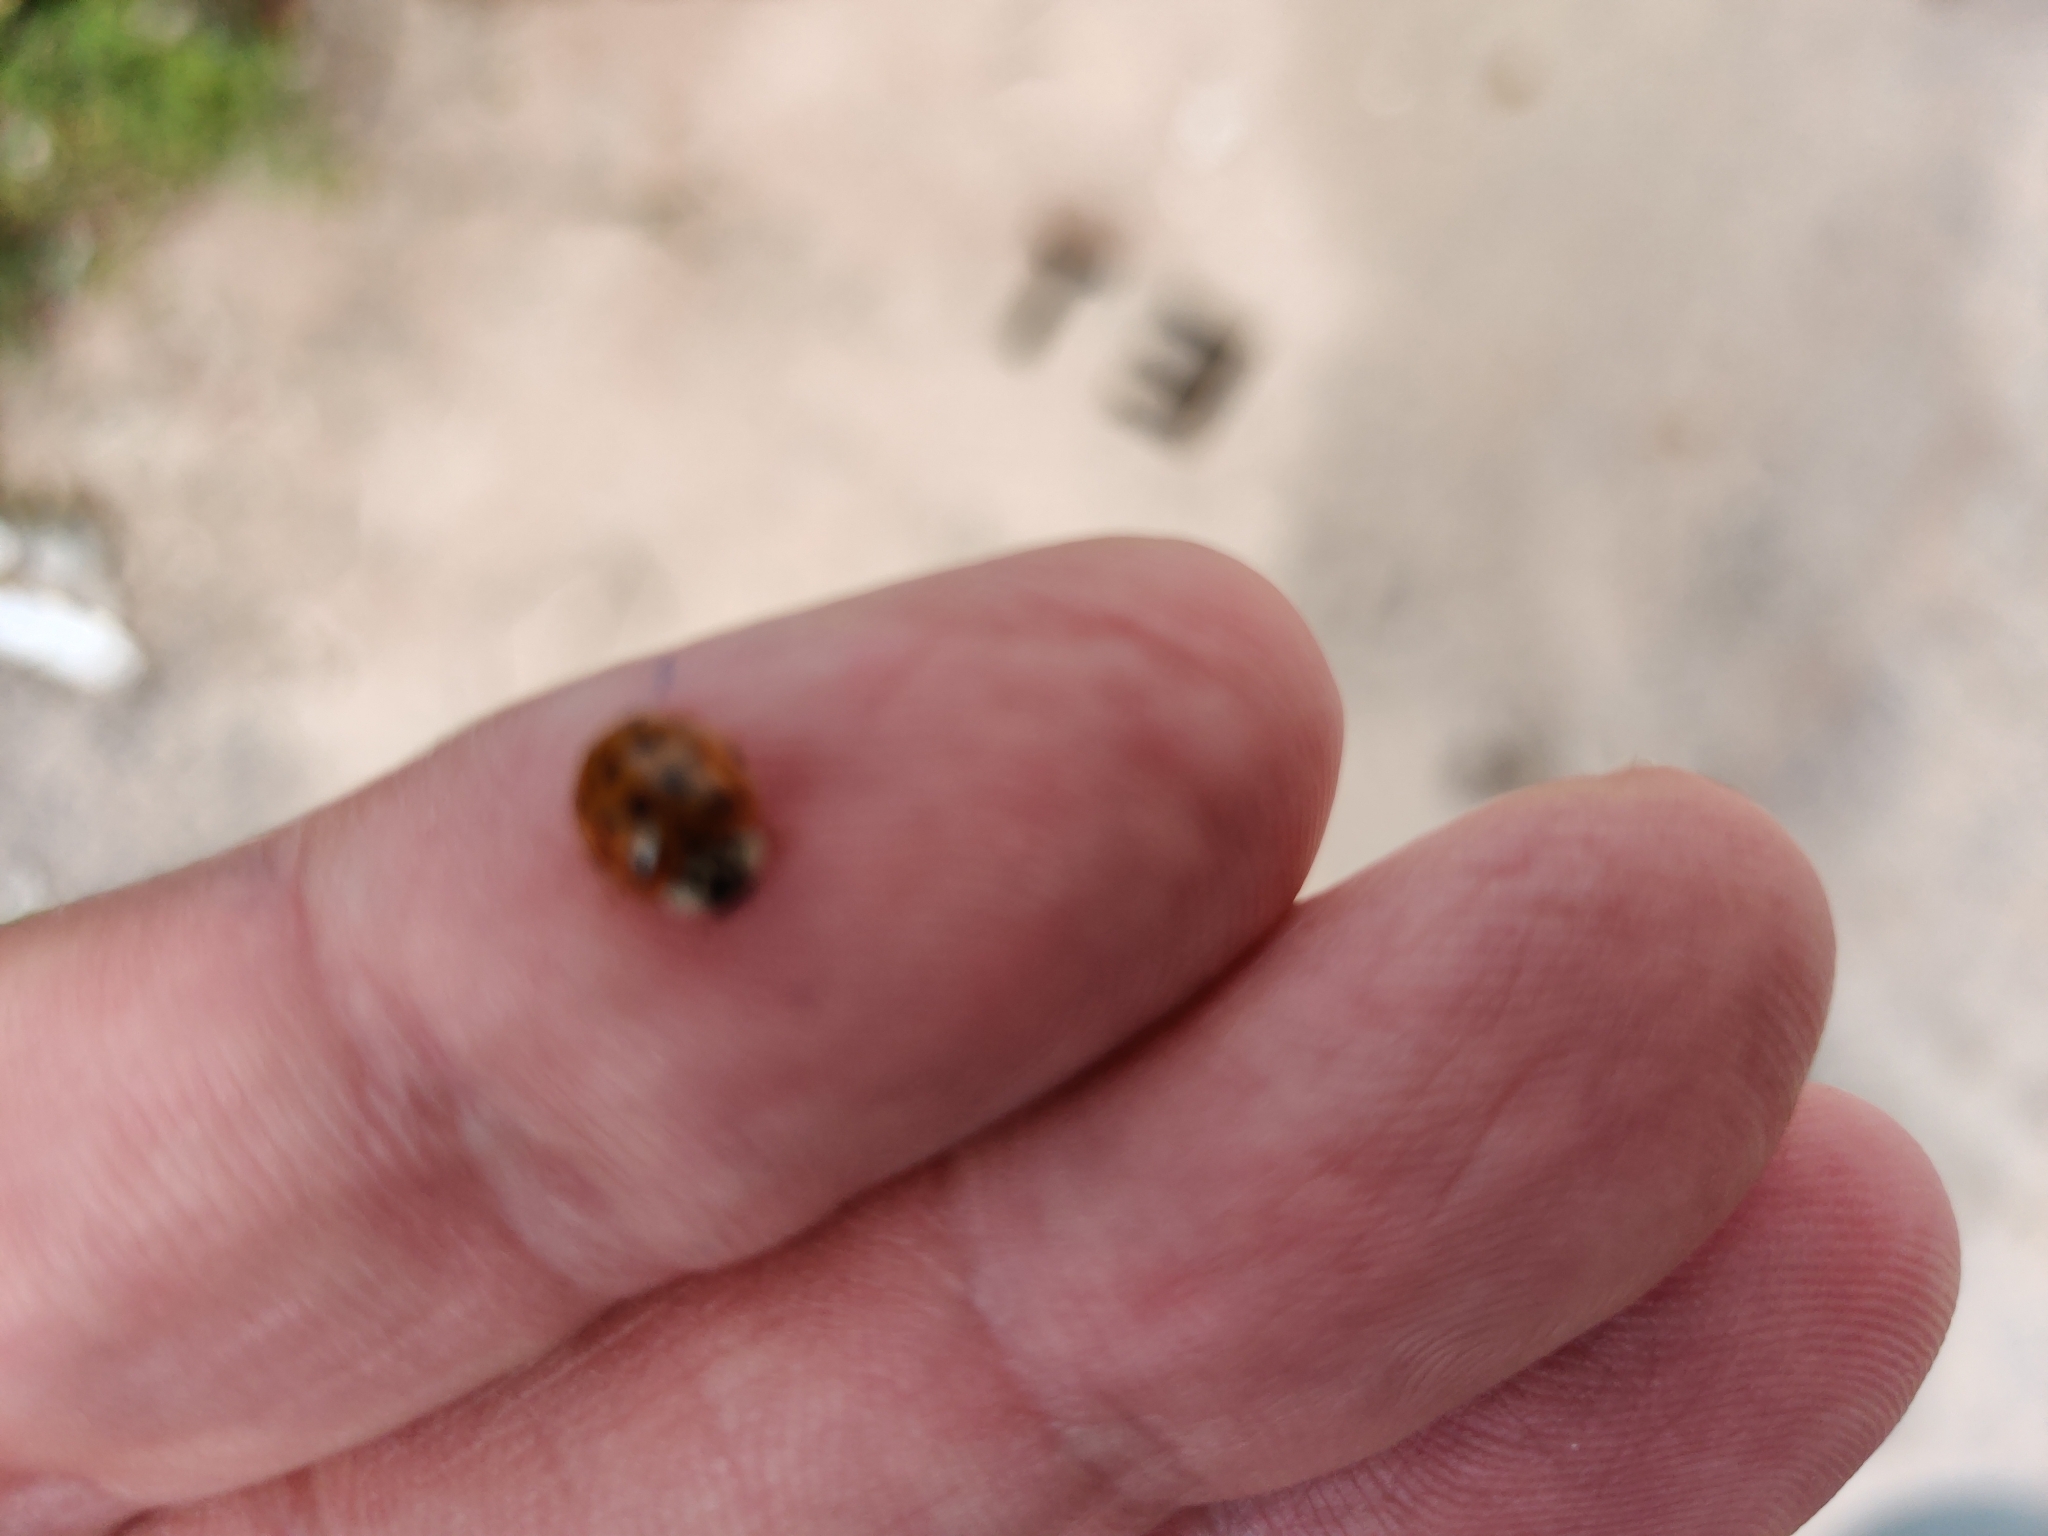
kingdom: Animalia
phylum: Arthropoda
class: Insecta
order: Coleoptera
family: Coccinellidae
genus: Harmonia
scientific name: Harmonia axyridis
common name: Harlequin ladybird
